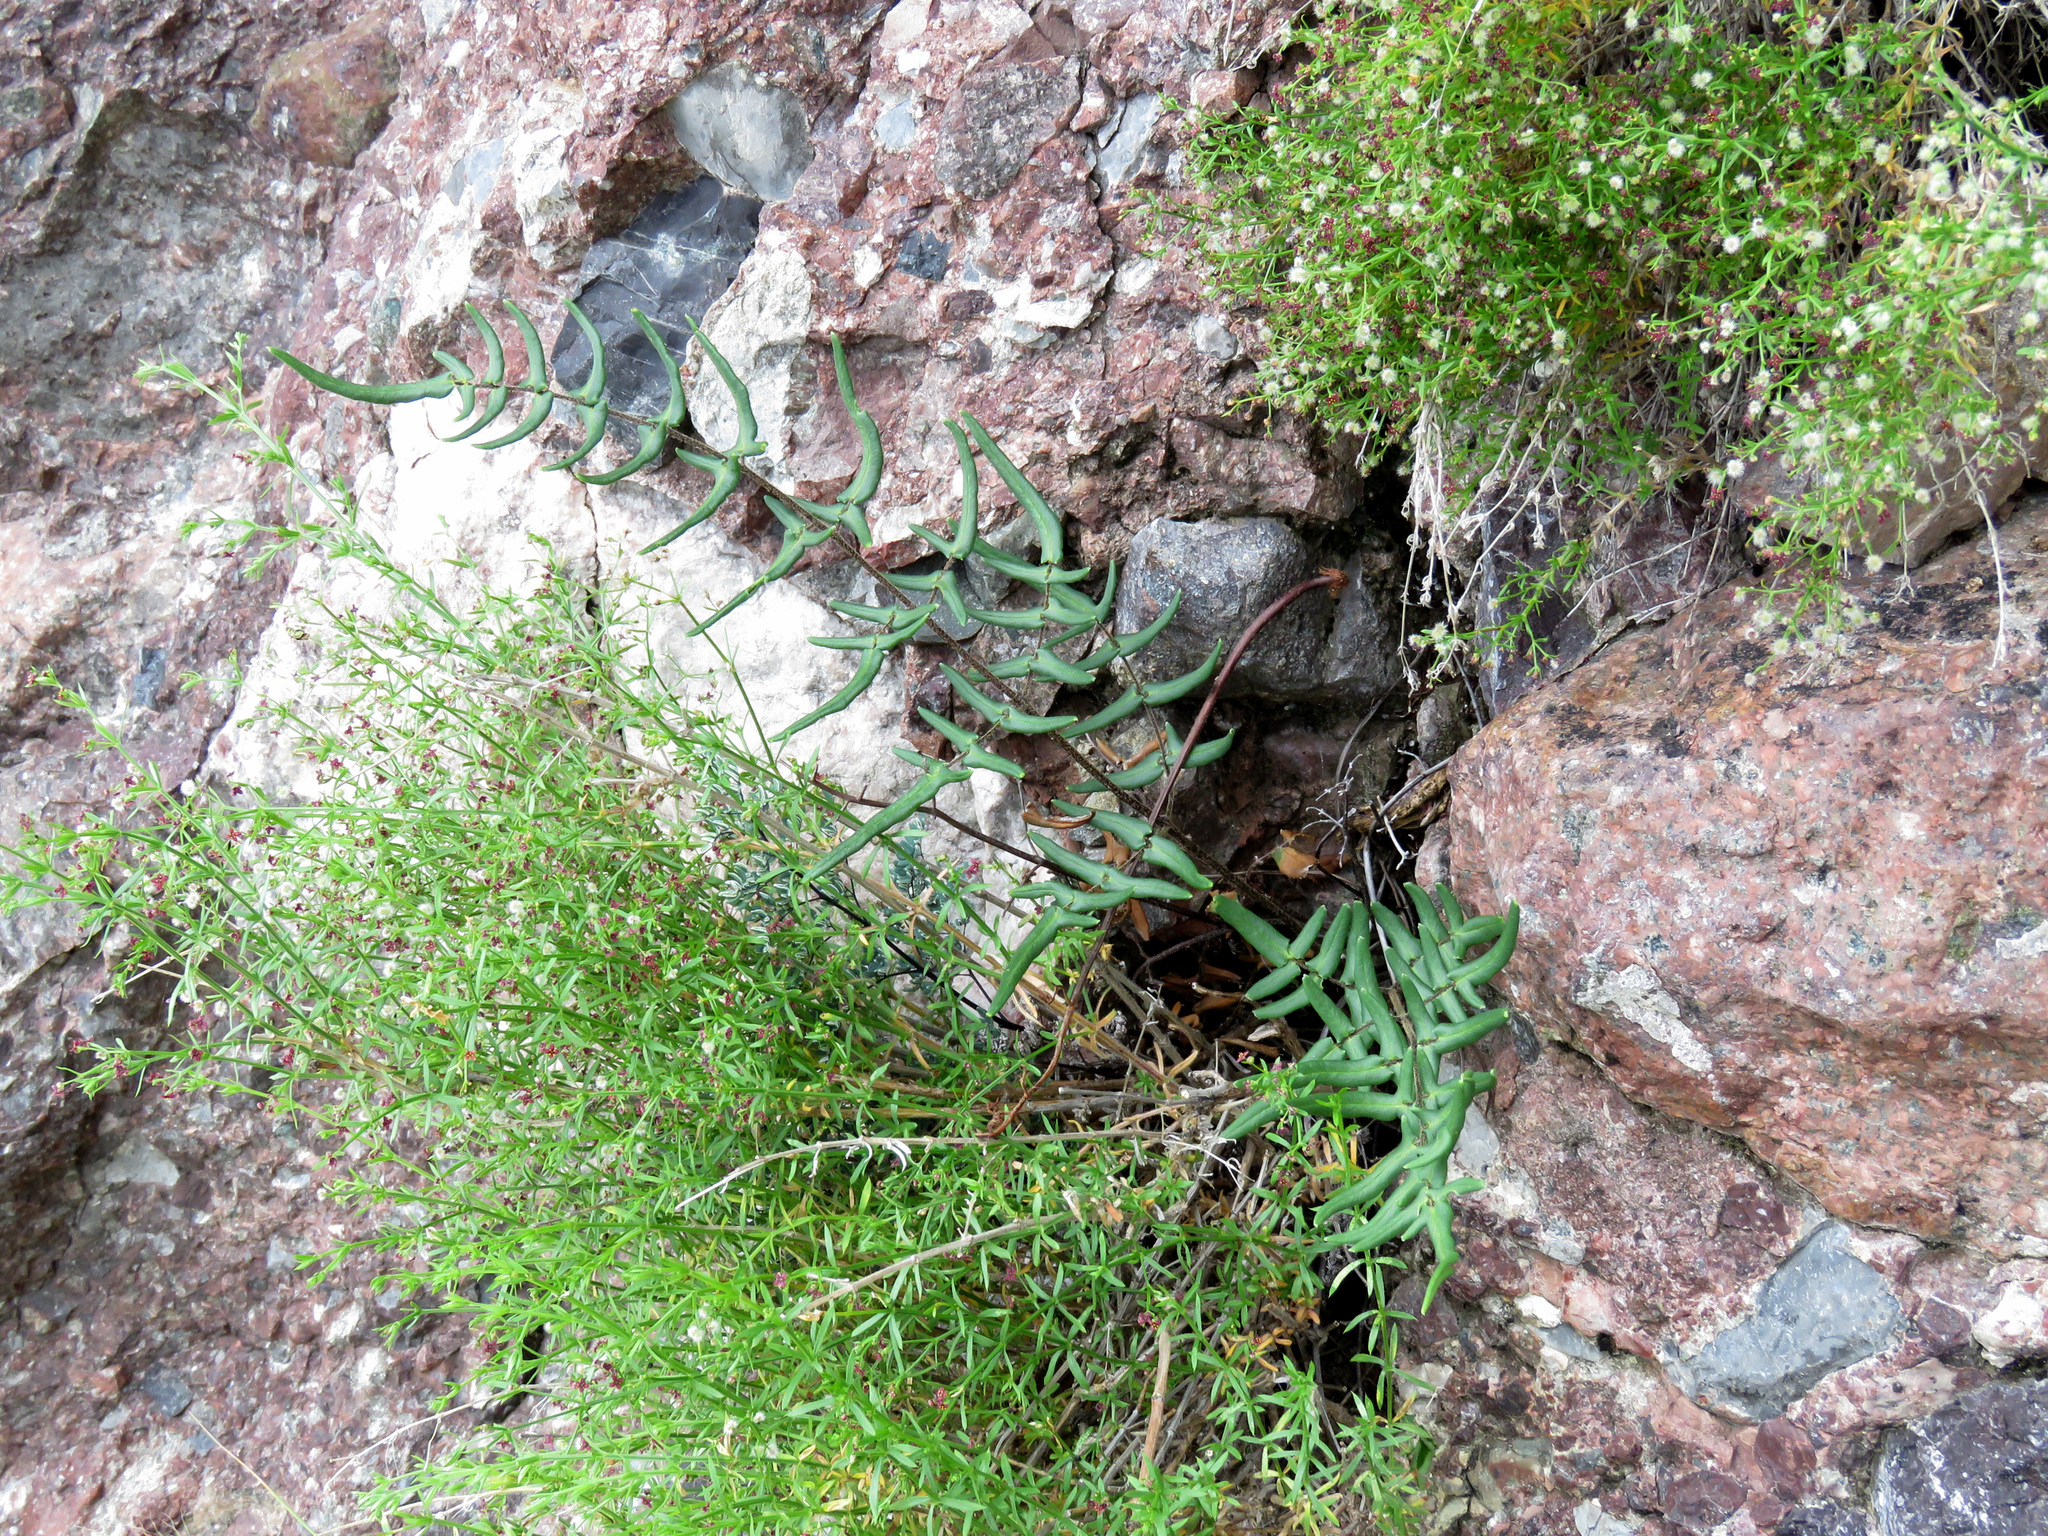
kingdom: Plantae
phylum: Tracheophyta
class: Polypodiopsida
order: Polypodiales
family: Pteridaceae
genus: Pellaea
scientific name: Pellaea atropurpurea
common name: Hairy cliffbrake
